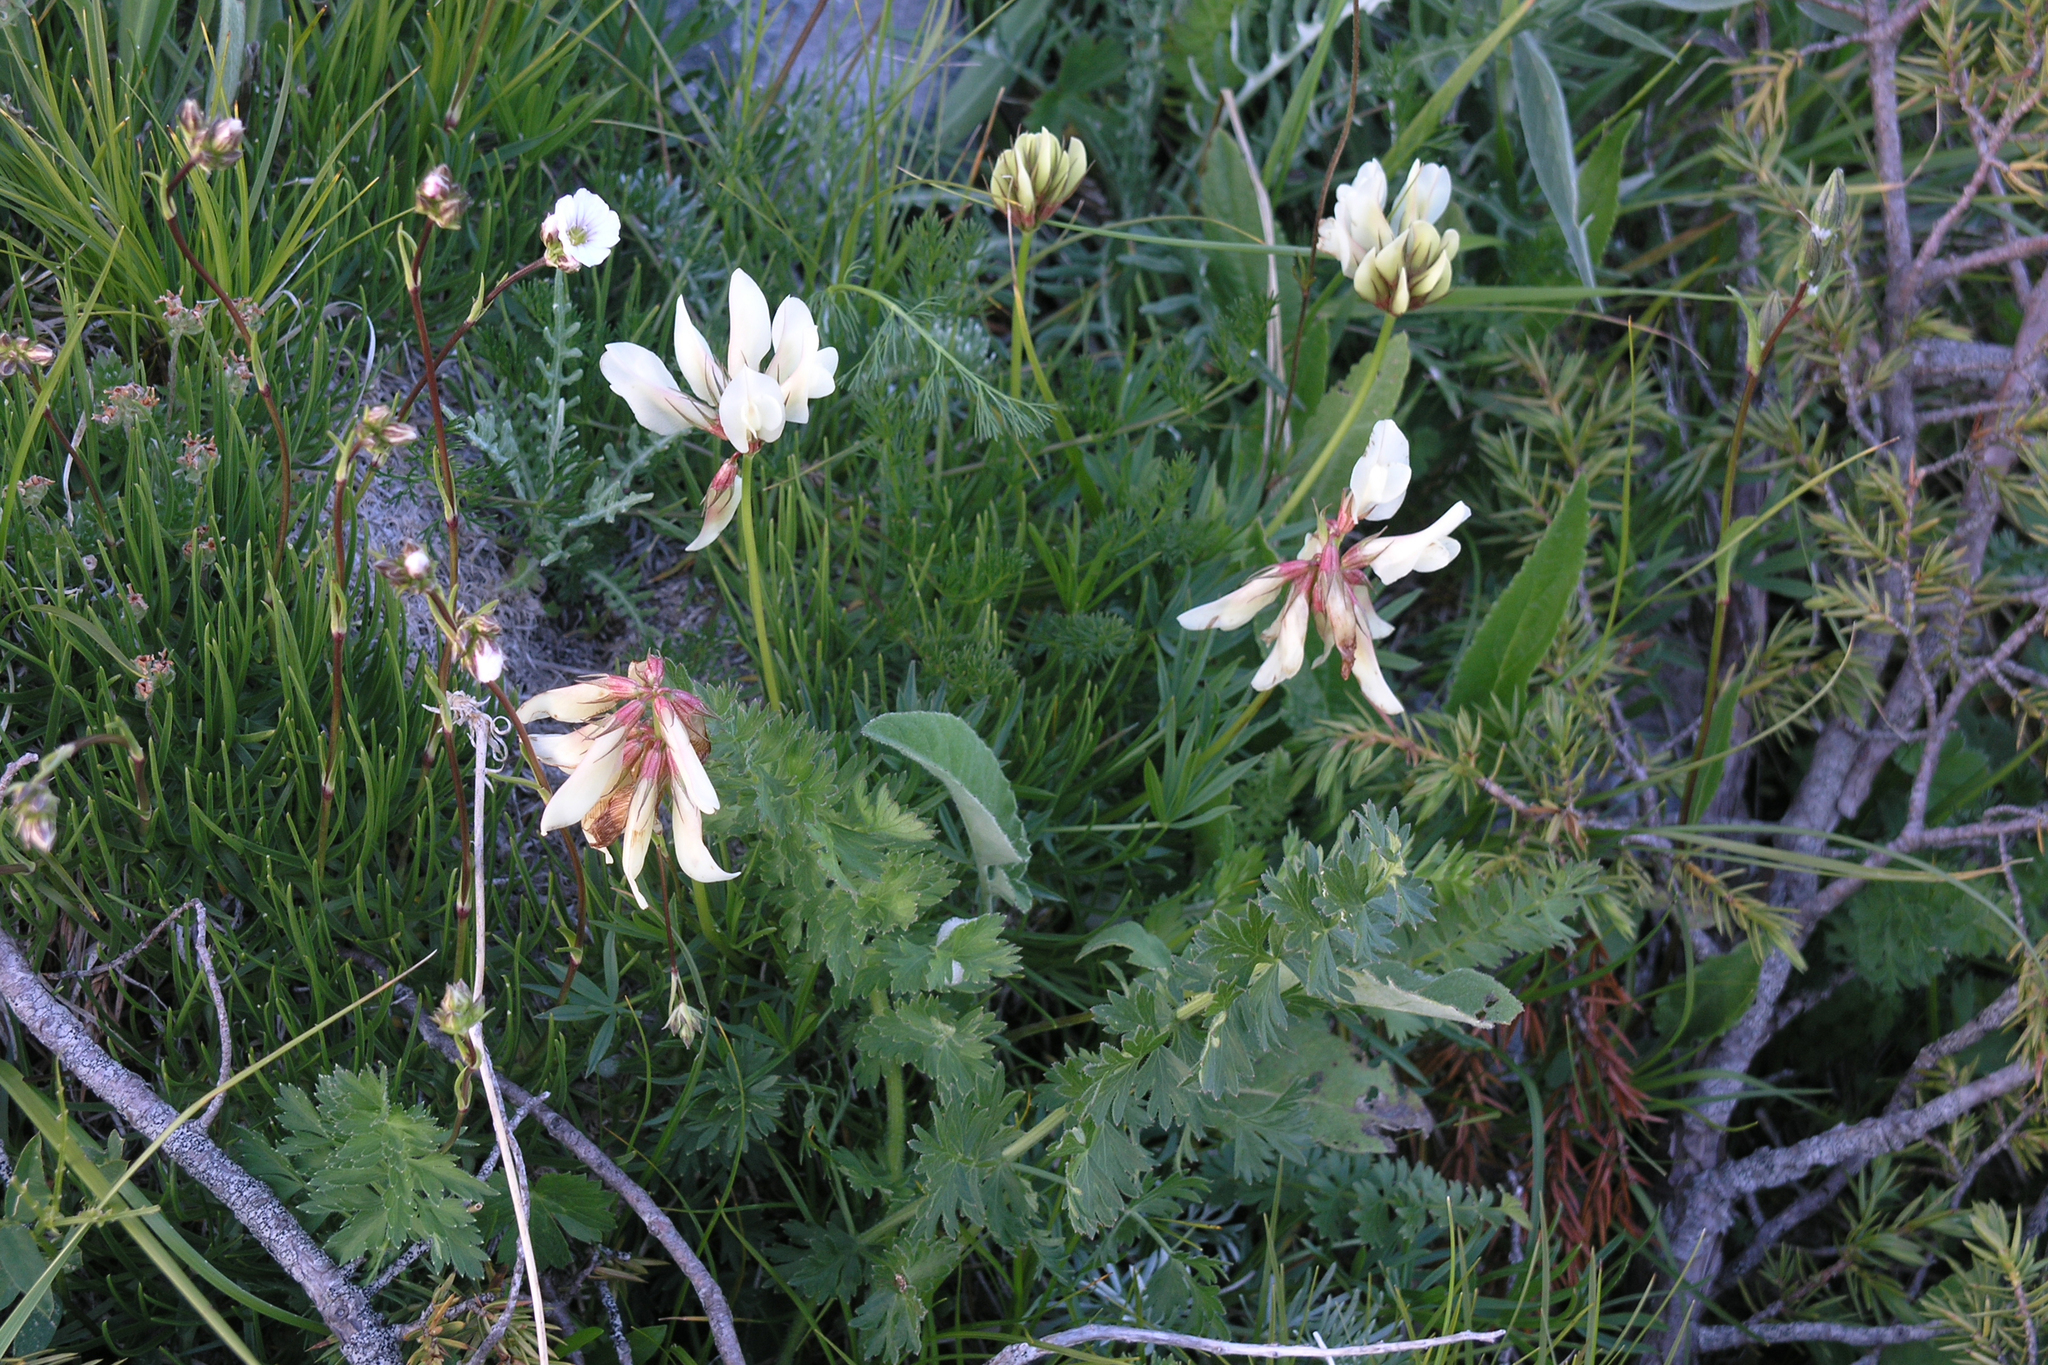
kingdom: Plantae
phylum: Tracheophyta
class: Magnoliopsida
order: Fabales
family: Fabaceae
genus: Trifolium
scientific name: Trifolium polyphyllum
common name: Many-leaf clover
